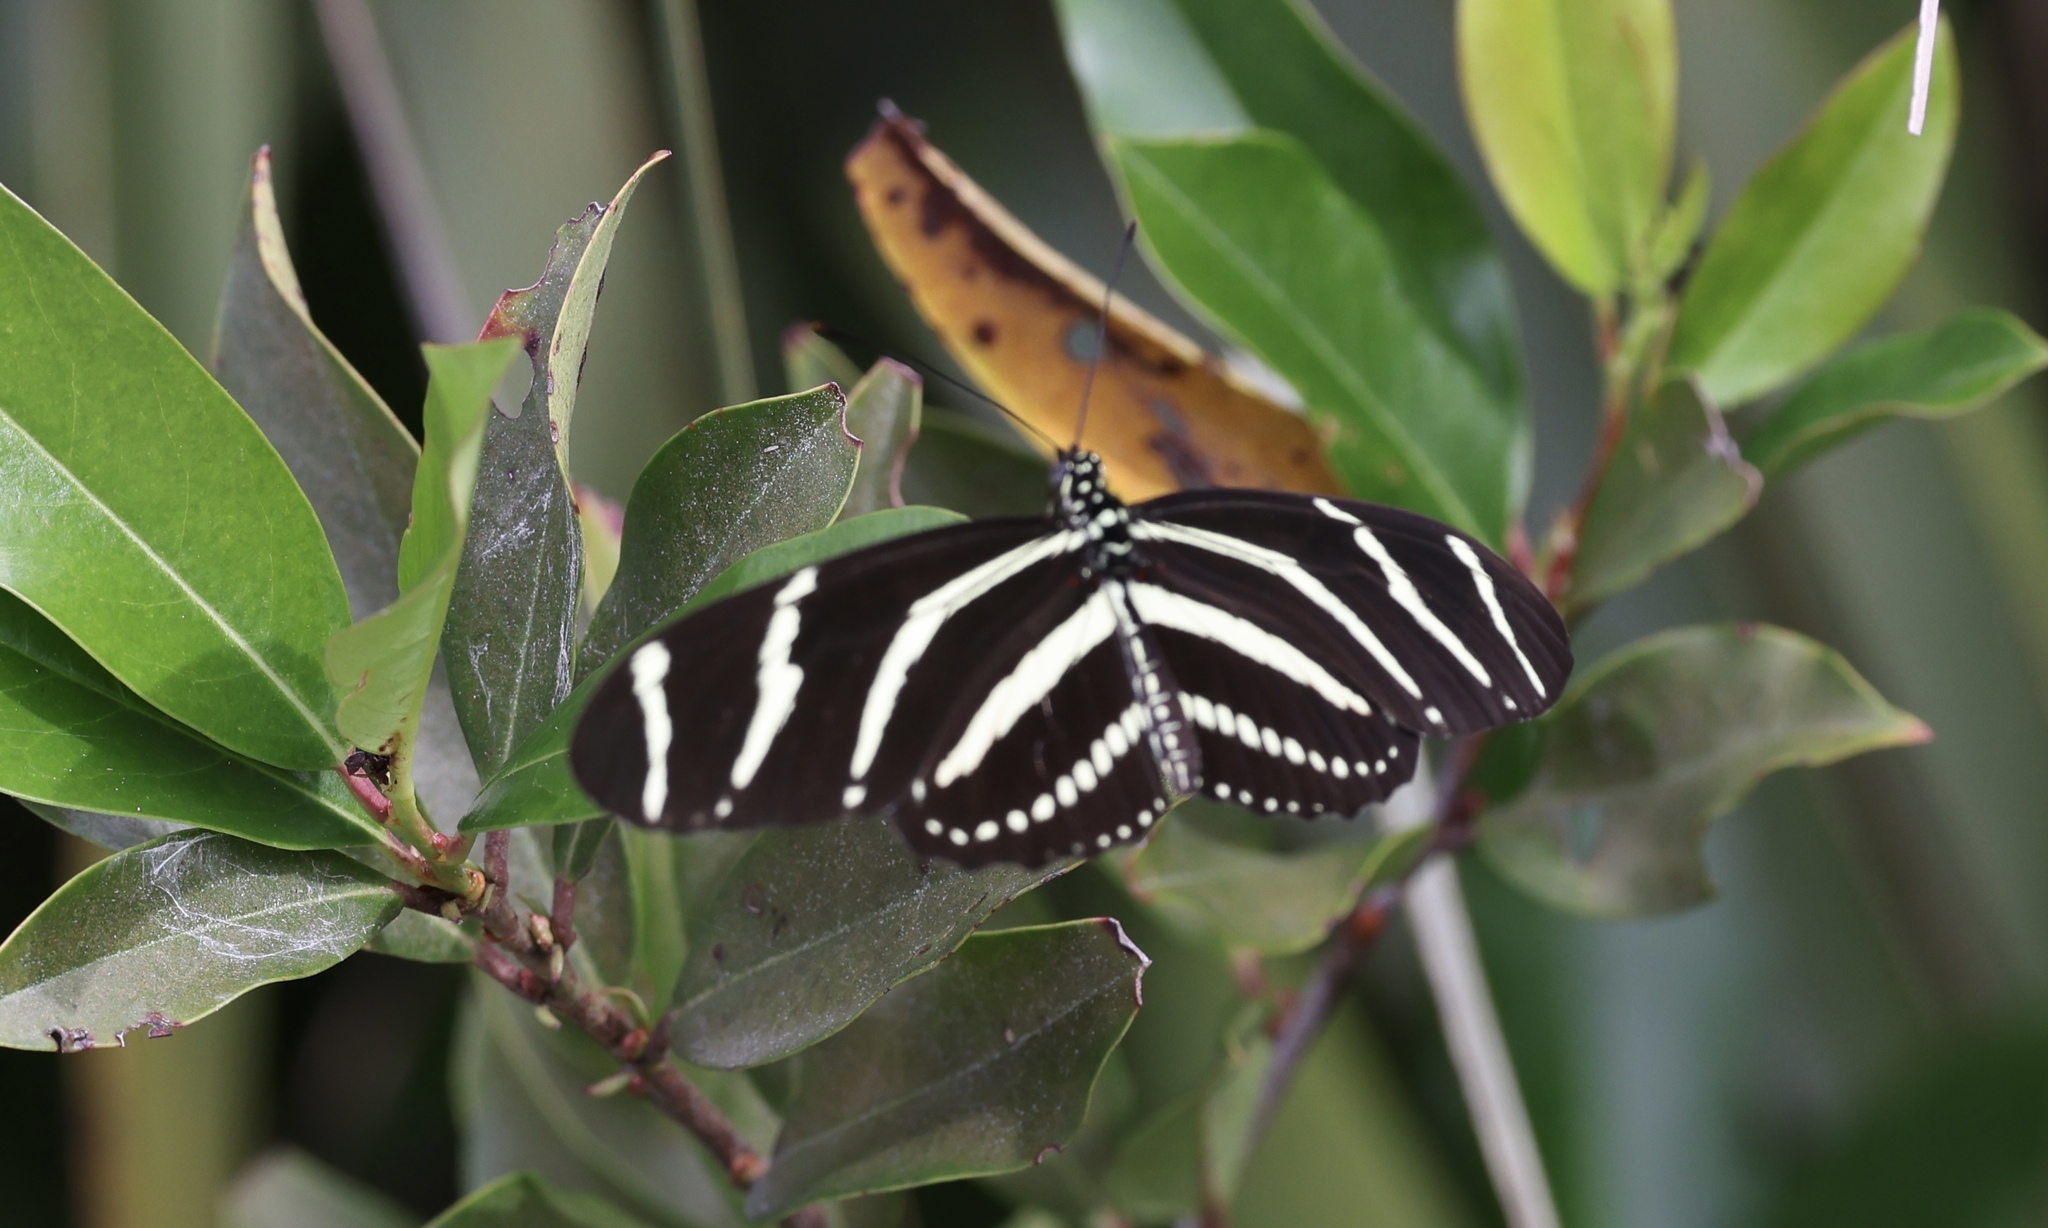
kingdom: Animalia
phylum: Arthropoda
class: Insecta
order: Lepidoptera
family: Nymphalidae
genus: Heliconius
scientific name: Heliconius charithonia
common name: Zebra long wing
